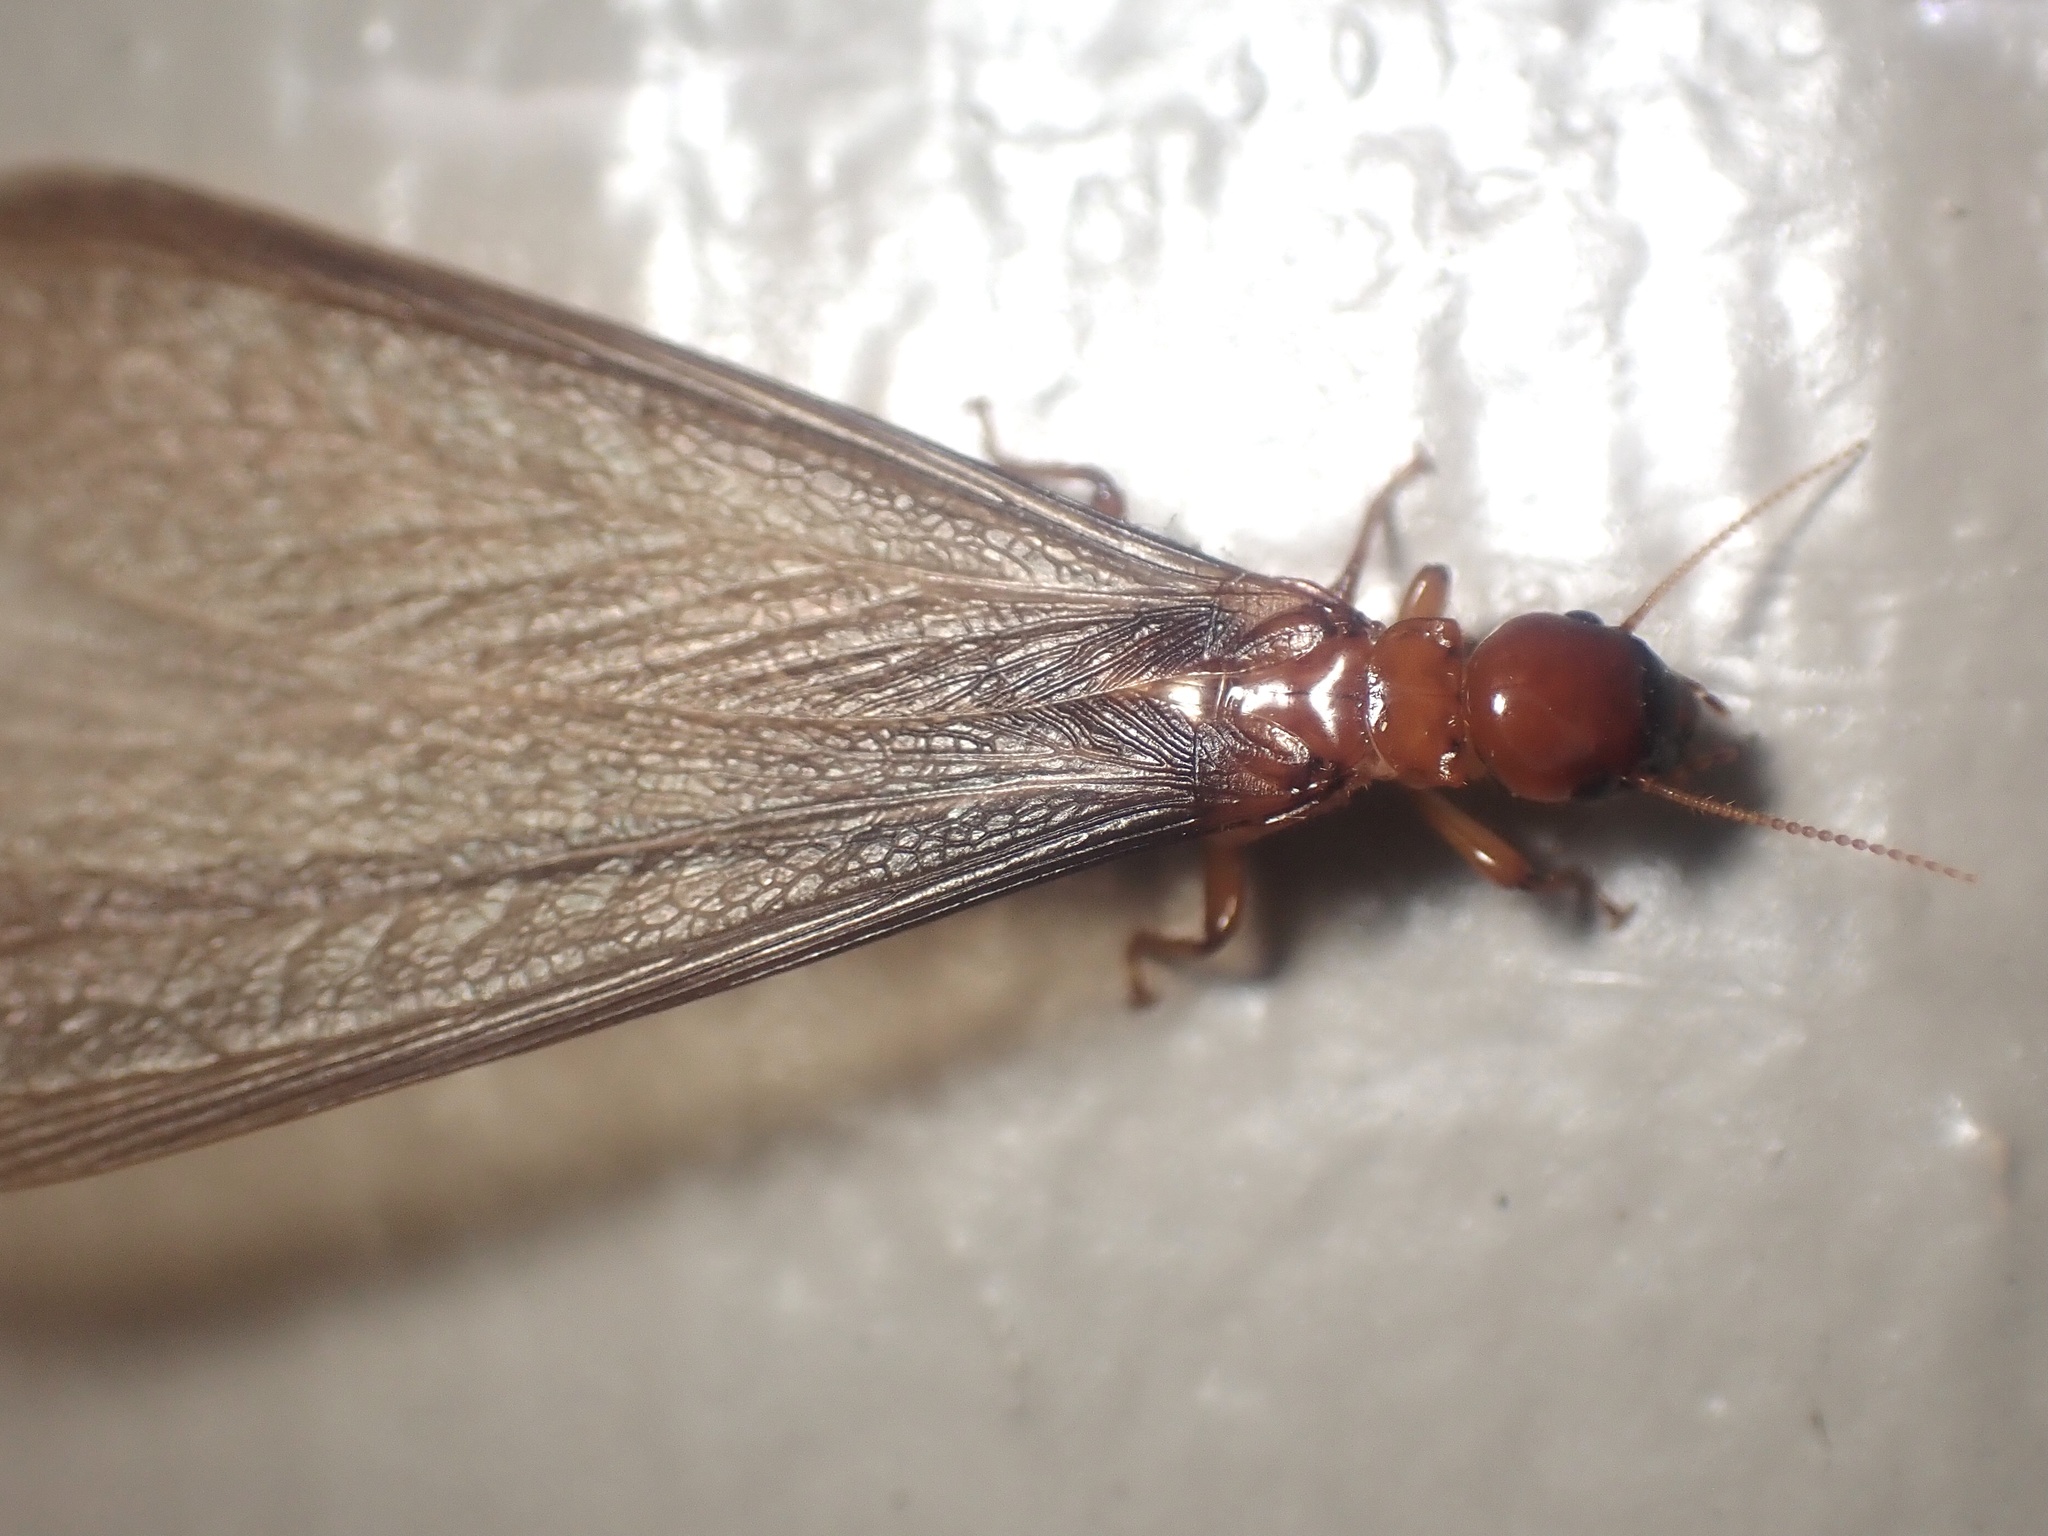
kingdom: Animalia
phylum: Arthropoda
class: Insecta
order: Blattodea
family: Archotermopsidae
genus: Zootermopsis
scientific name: Zootermopsis angusticollis
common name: Rottenwood termite
